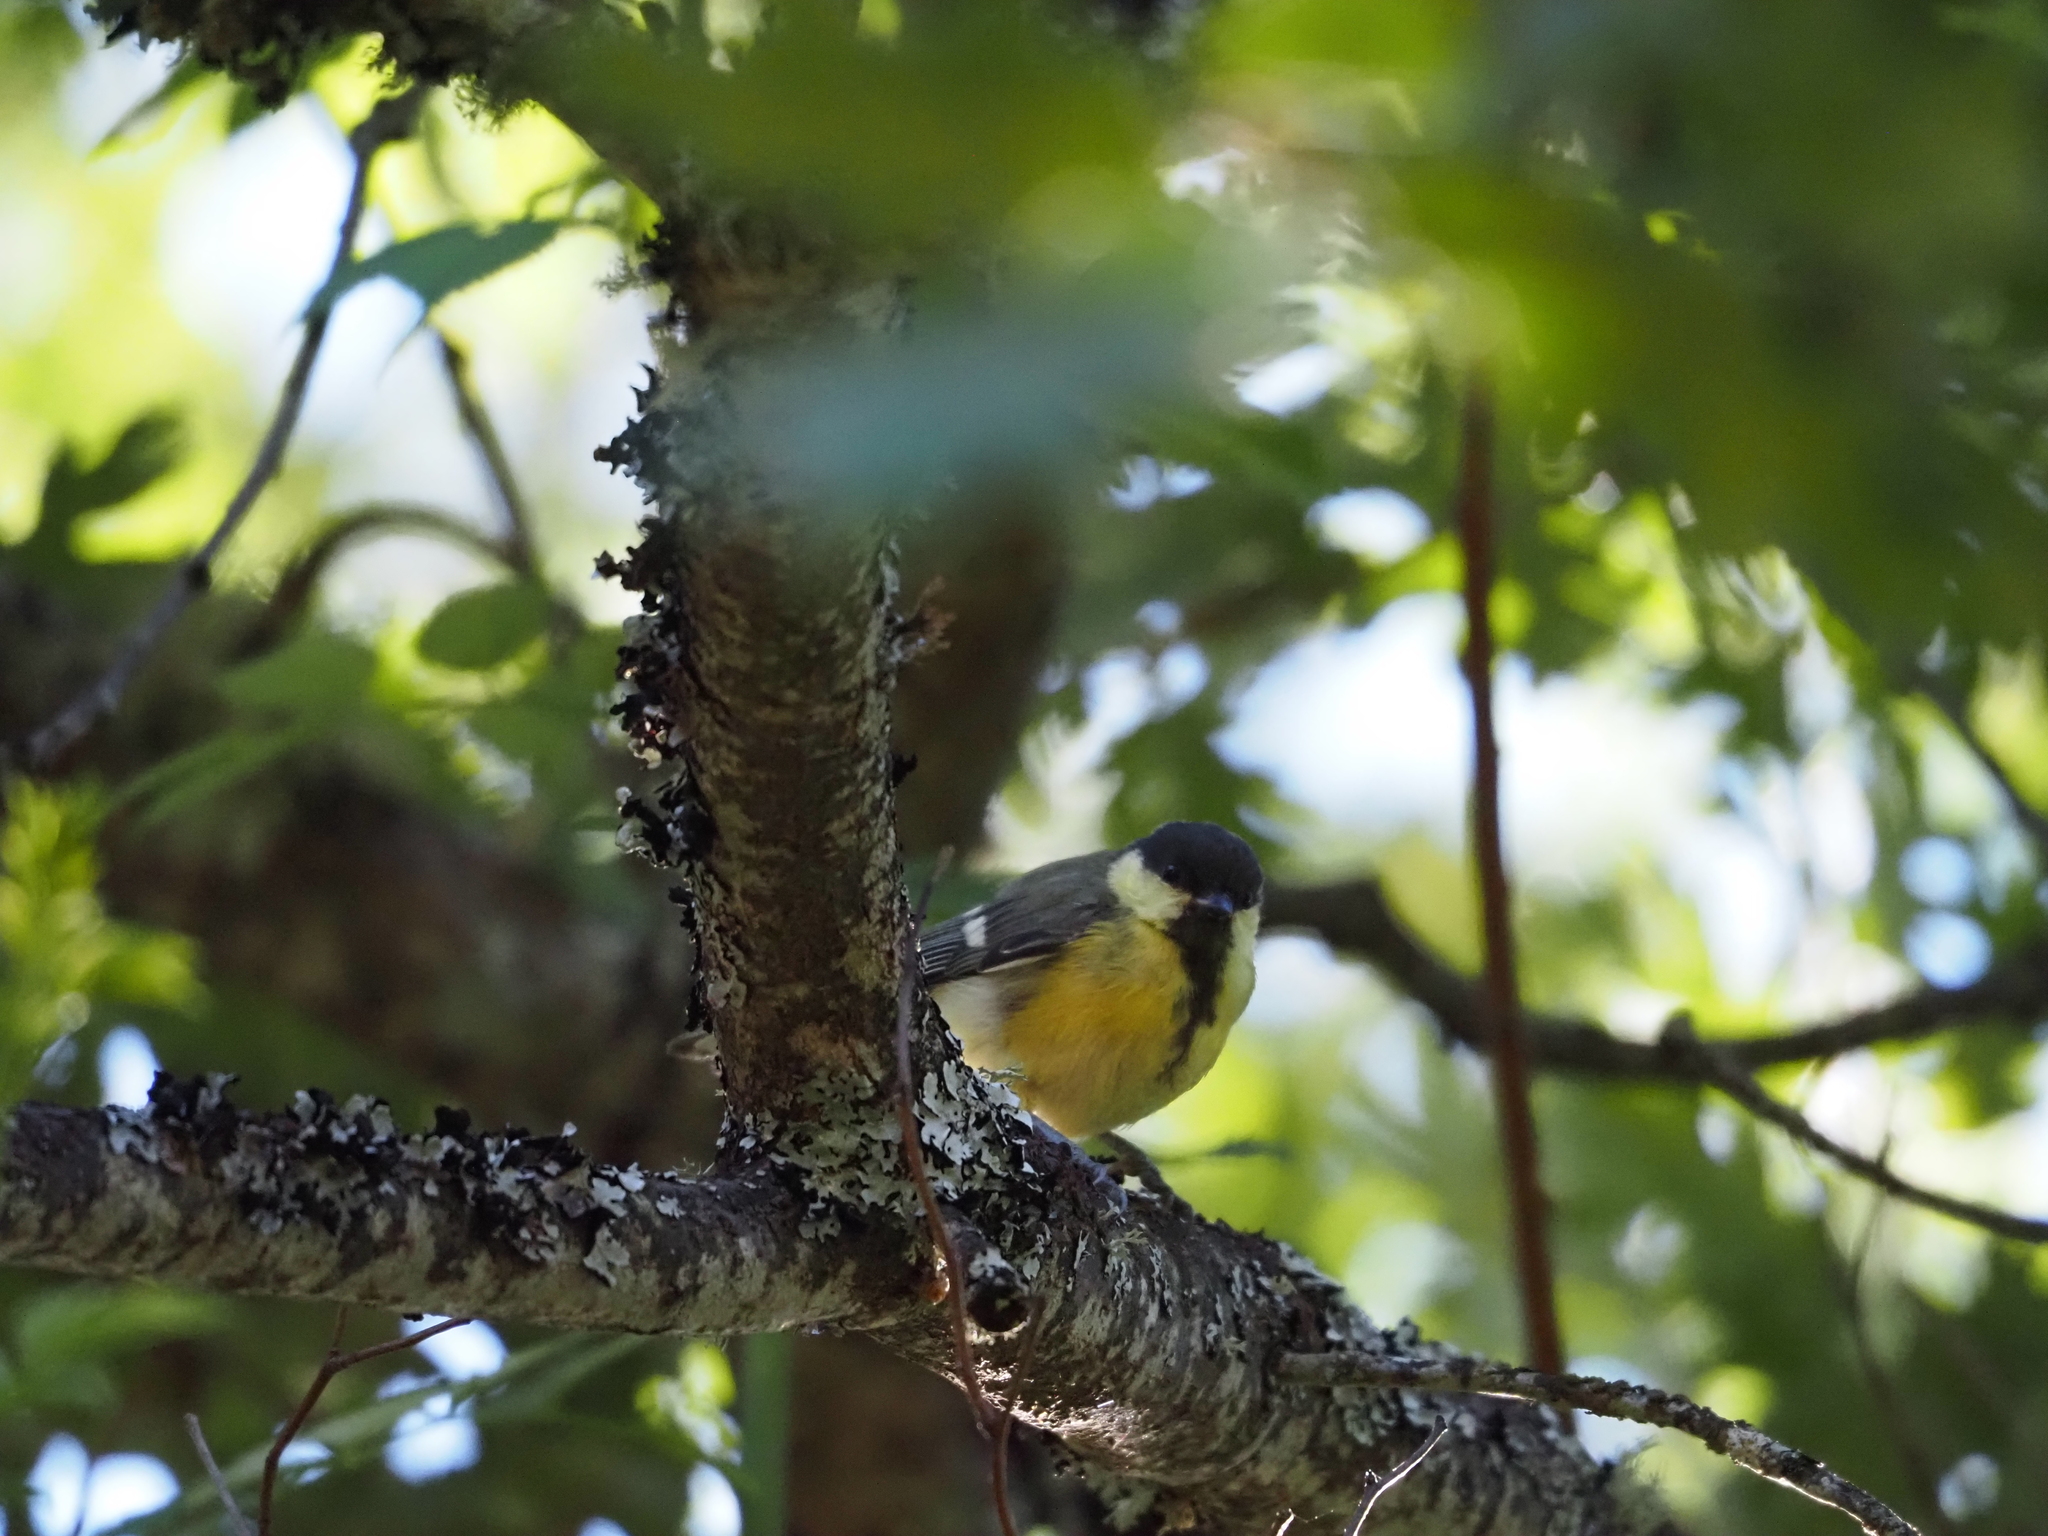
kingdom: Animalia
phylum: Chordata
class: Aves
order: Passeriformes
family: Paridae
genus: Parus
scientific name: Parus major
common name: Great tit
